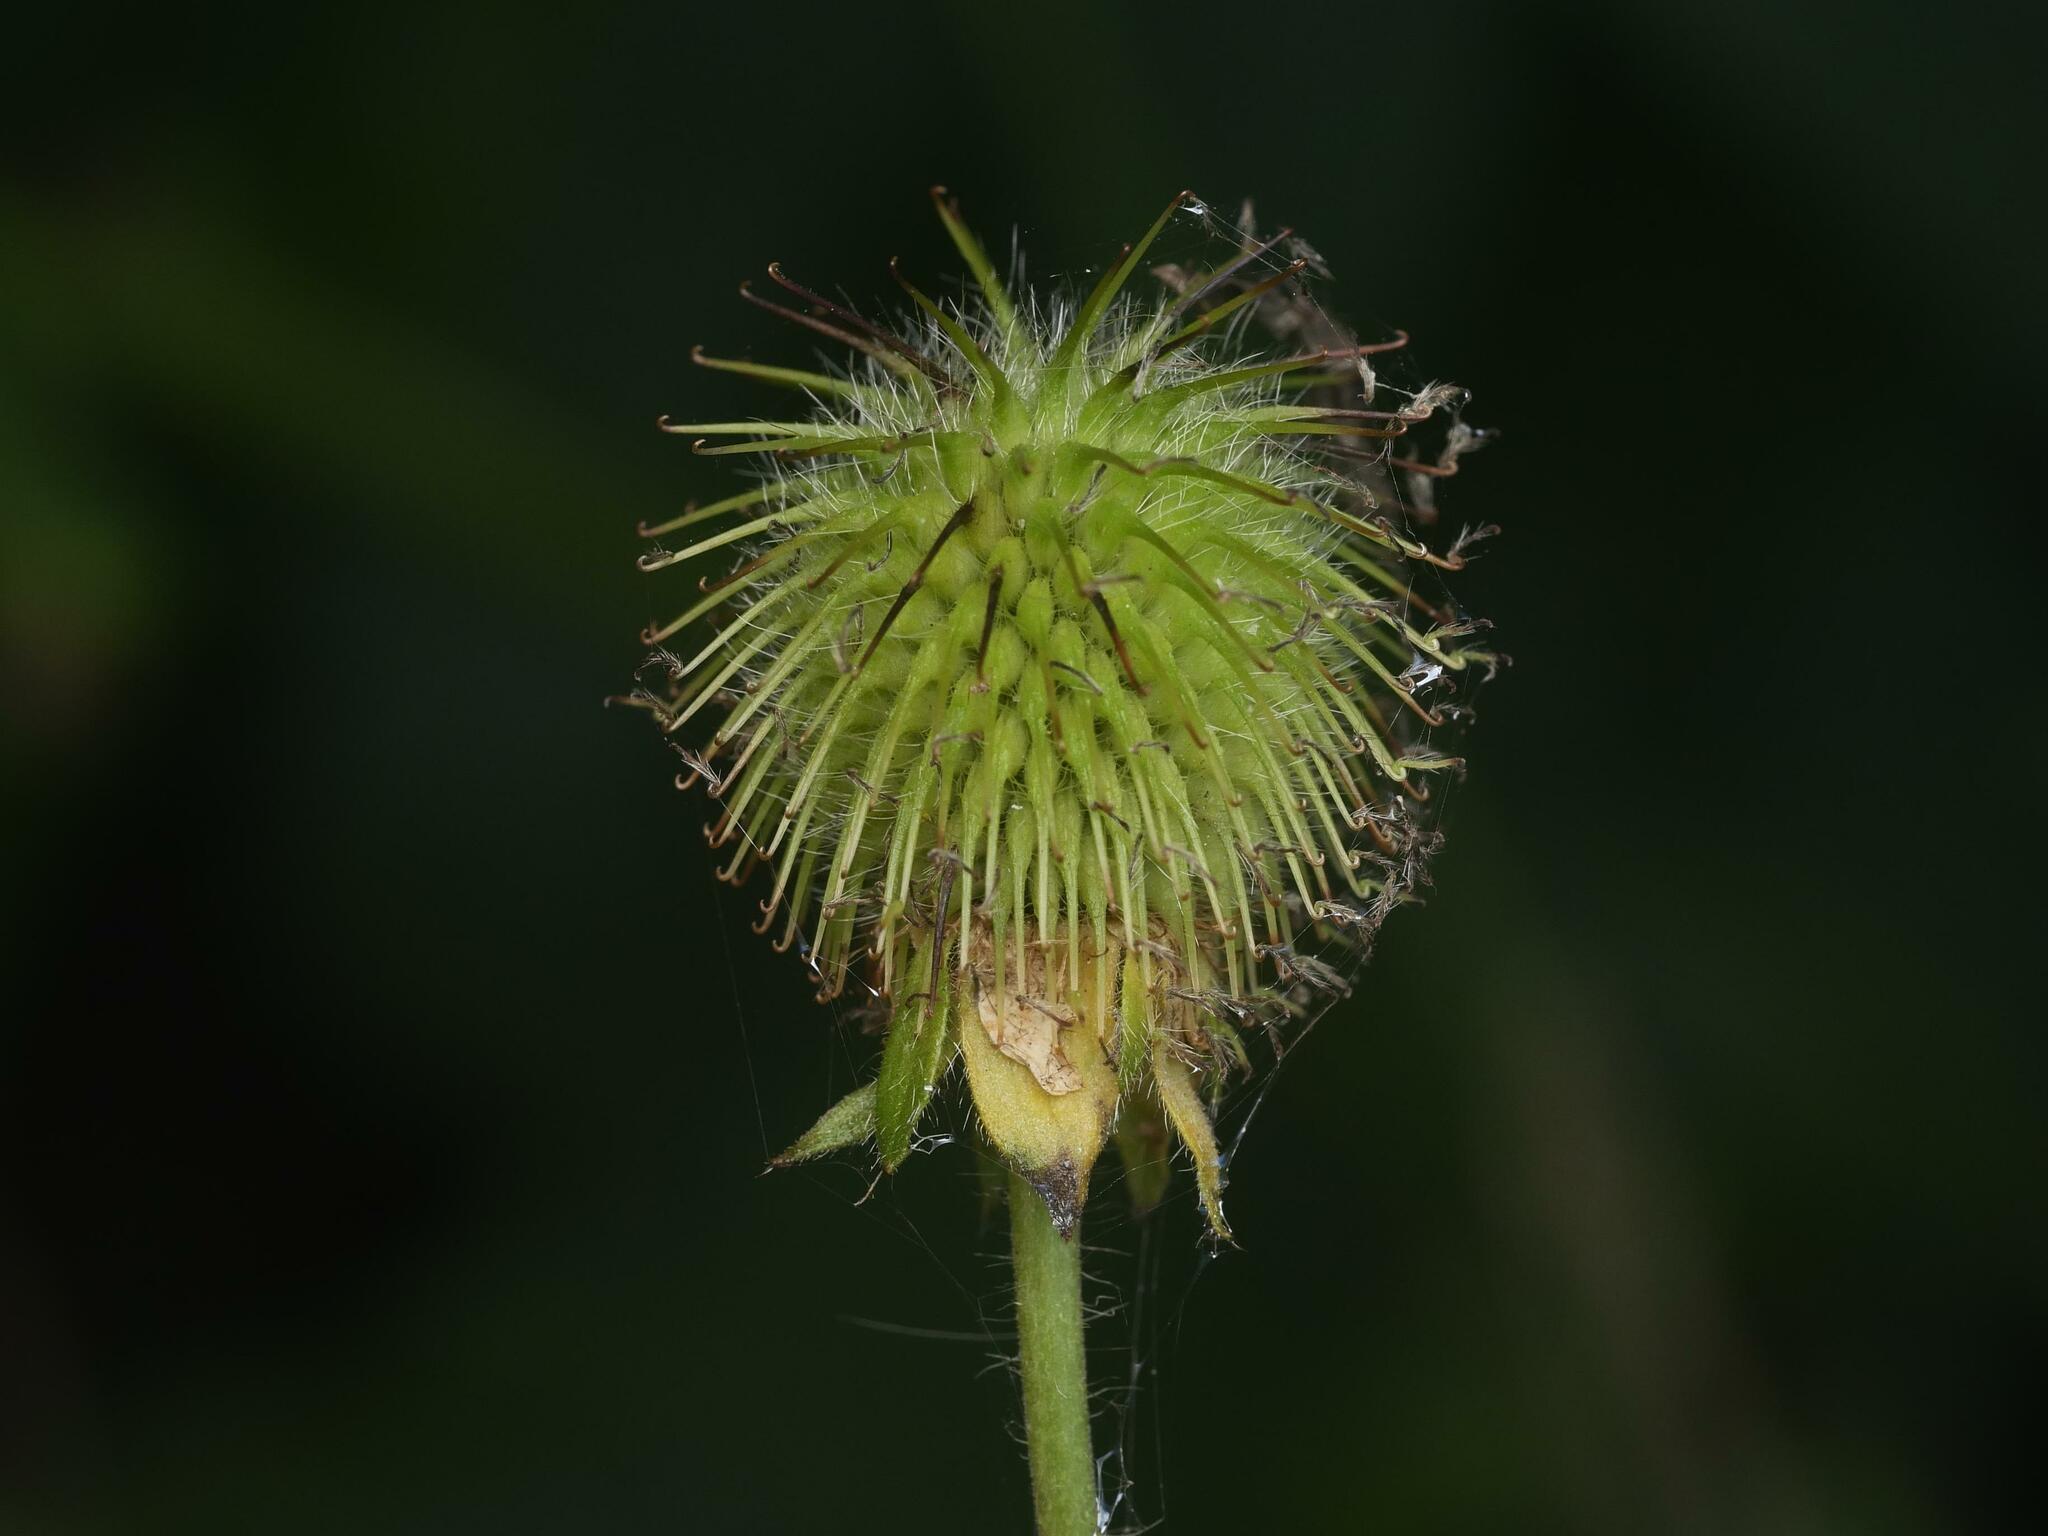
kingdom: Plantae
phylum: Tracheophyta
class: Magnoliopsida
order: Rosales
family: Rosaceae
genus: Geum
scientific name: Geum aleppicum
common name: Yellow avens
